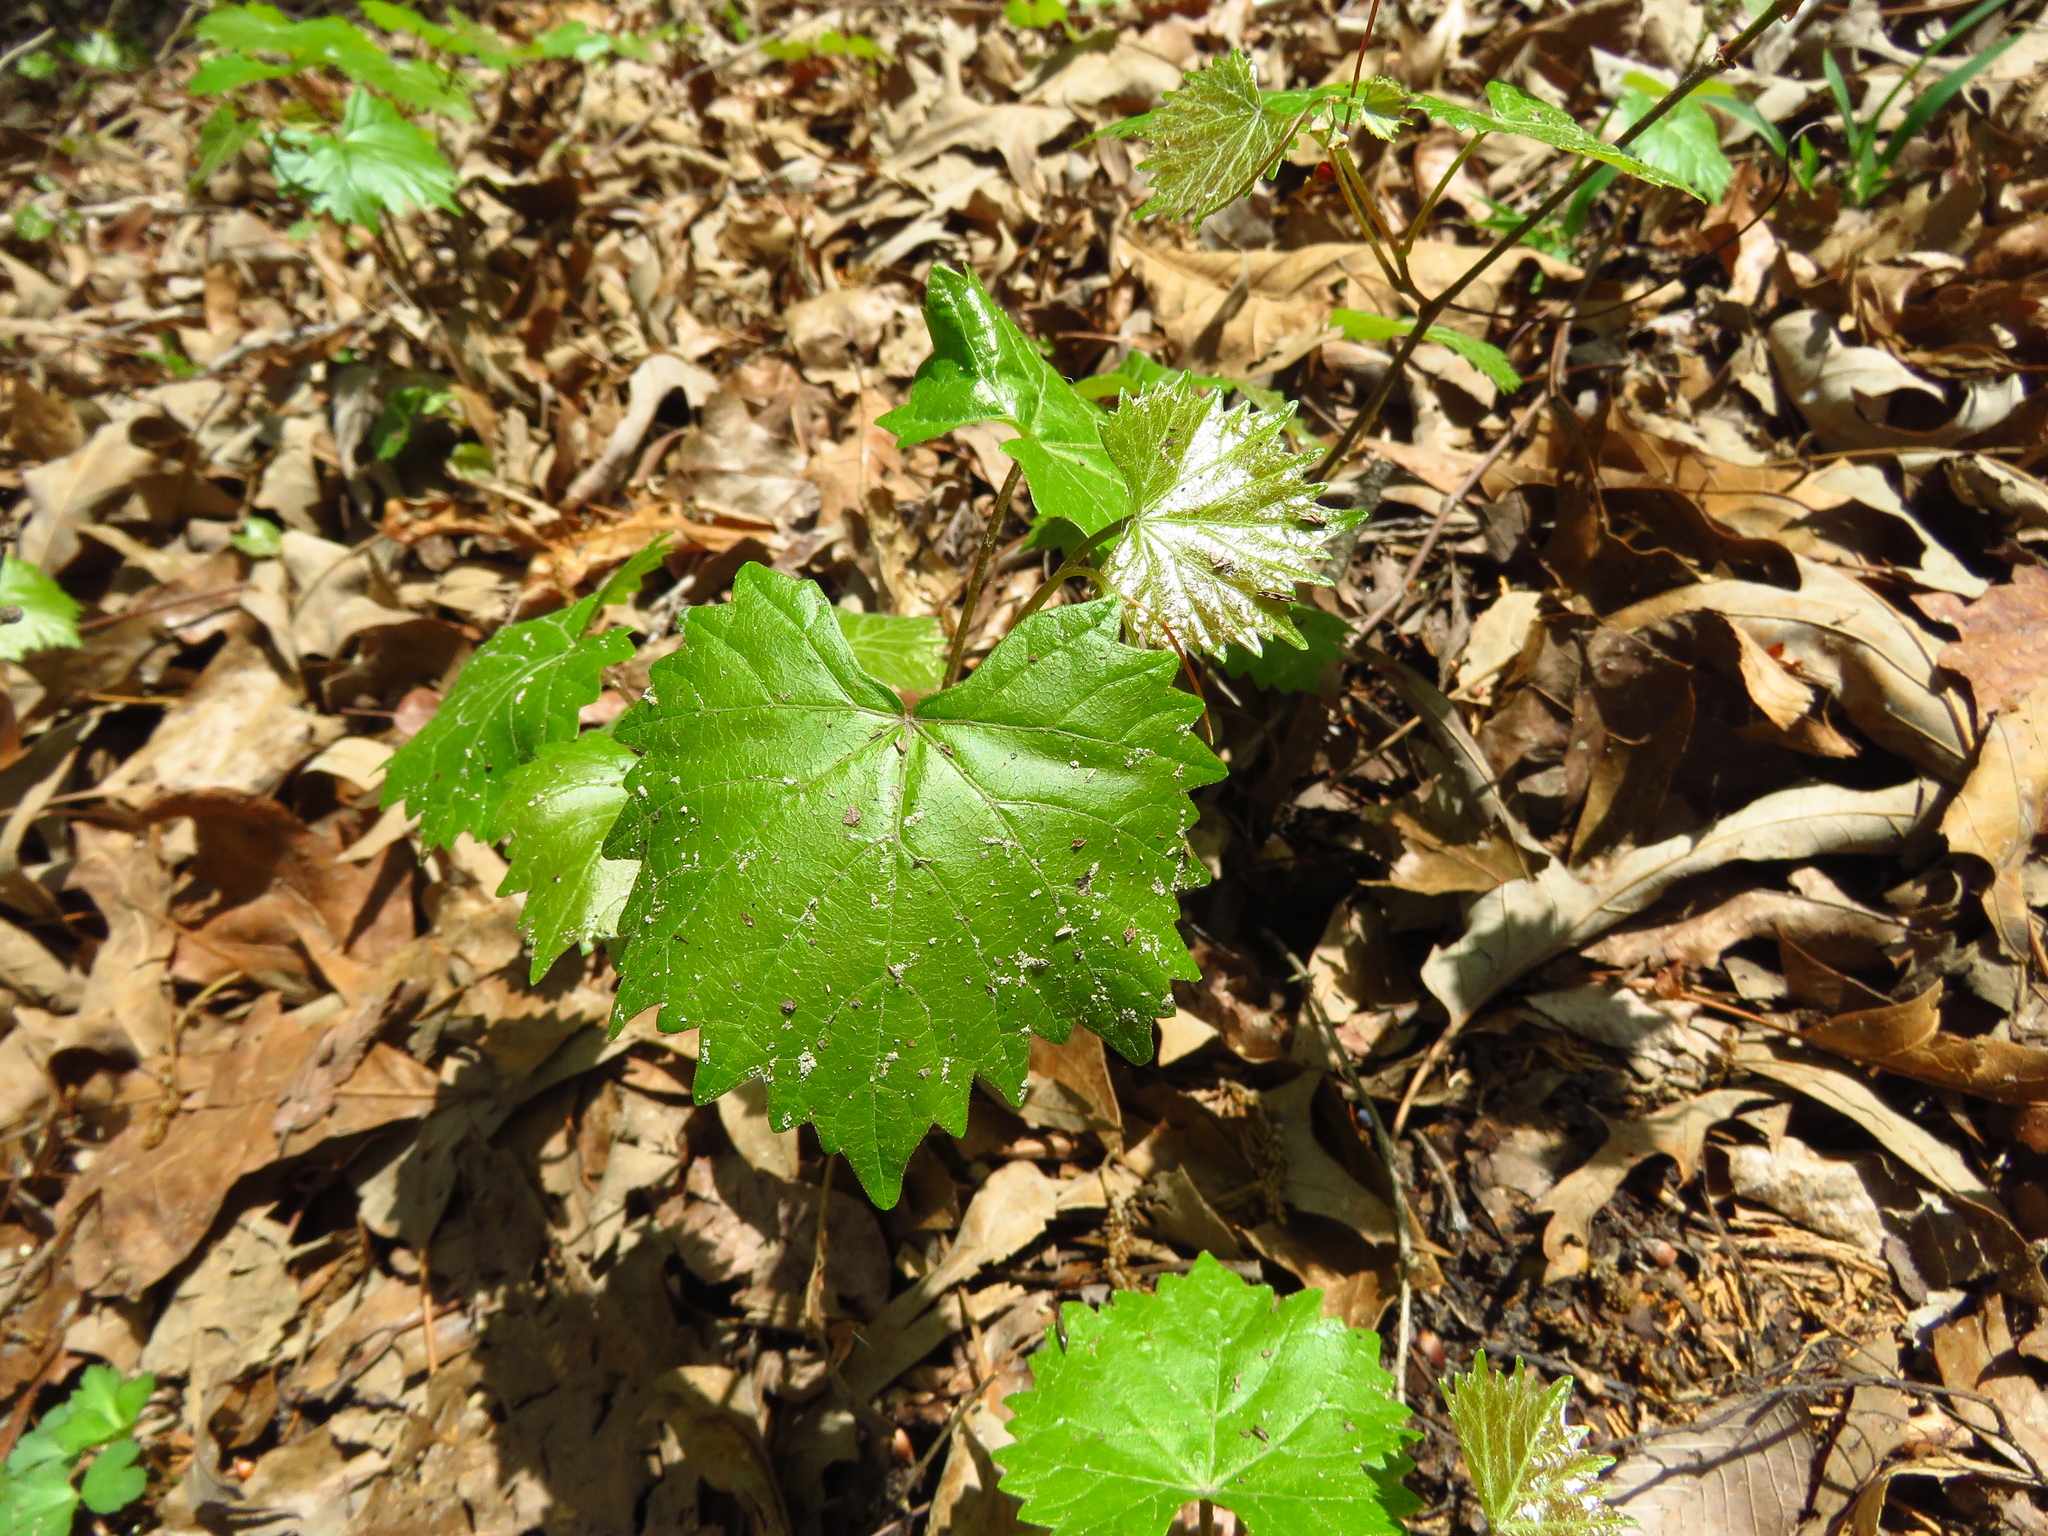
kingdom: Plantae
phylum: Tracheophyta
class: Magnoliopsida
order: Vitales
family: Vitaceae
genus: Vitis
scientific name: Vitis rotundifolia
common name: Muscadine grape
